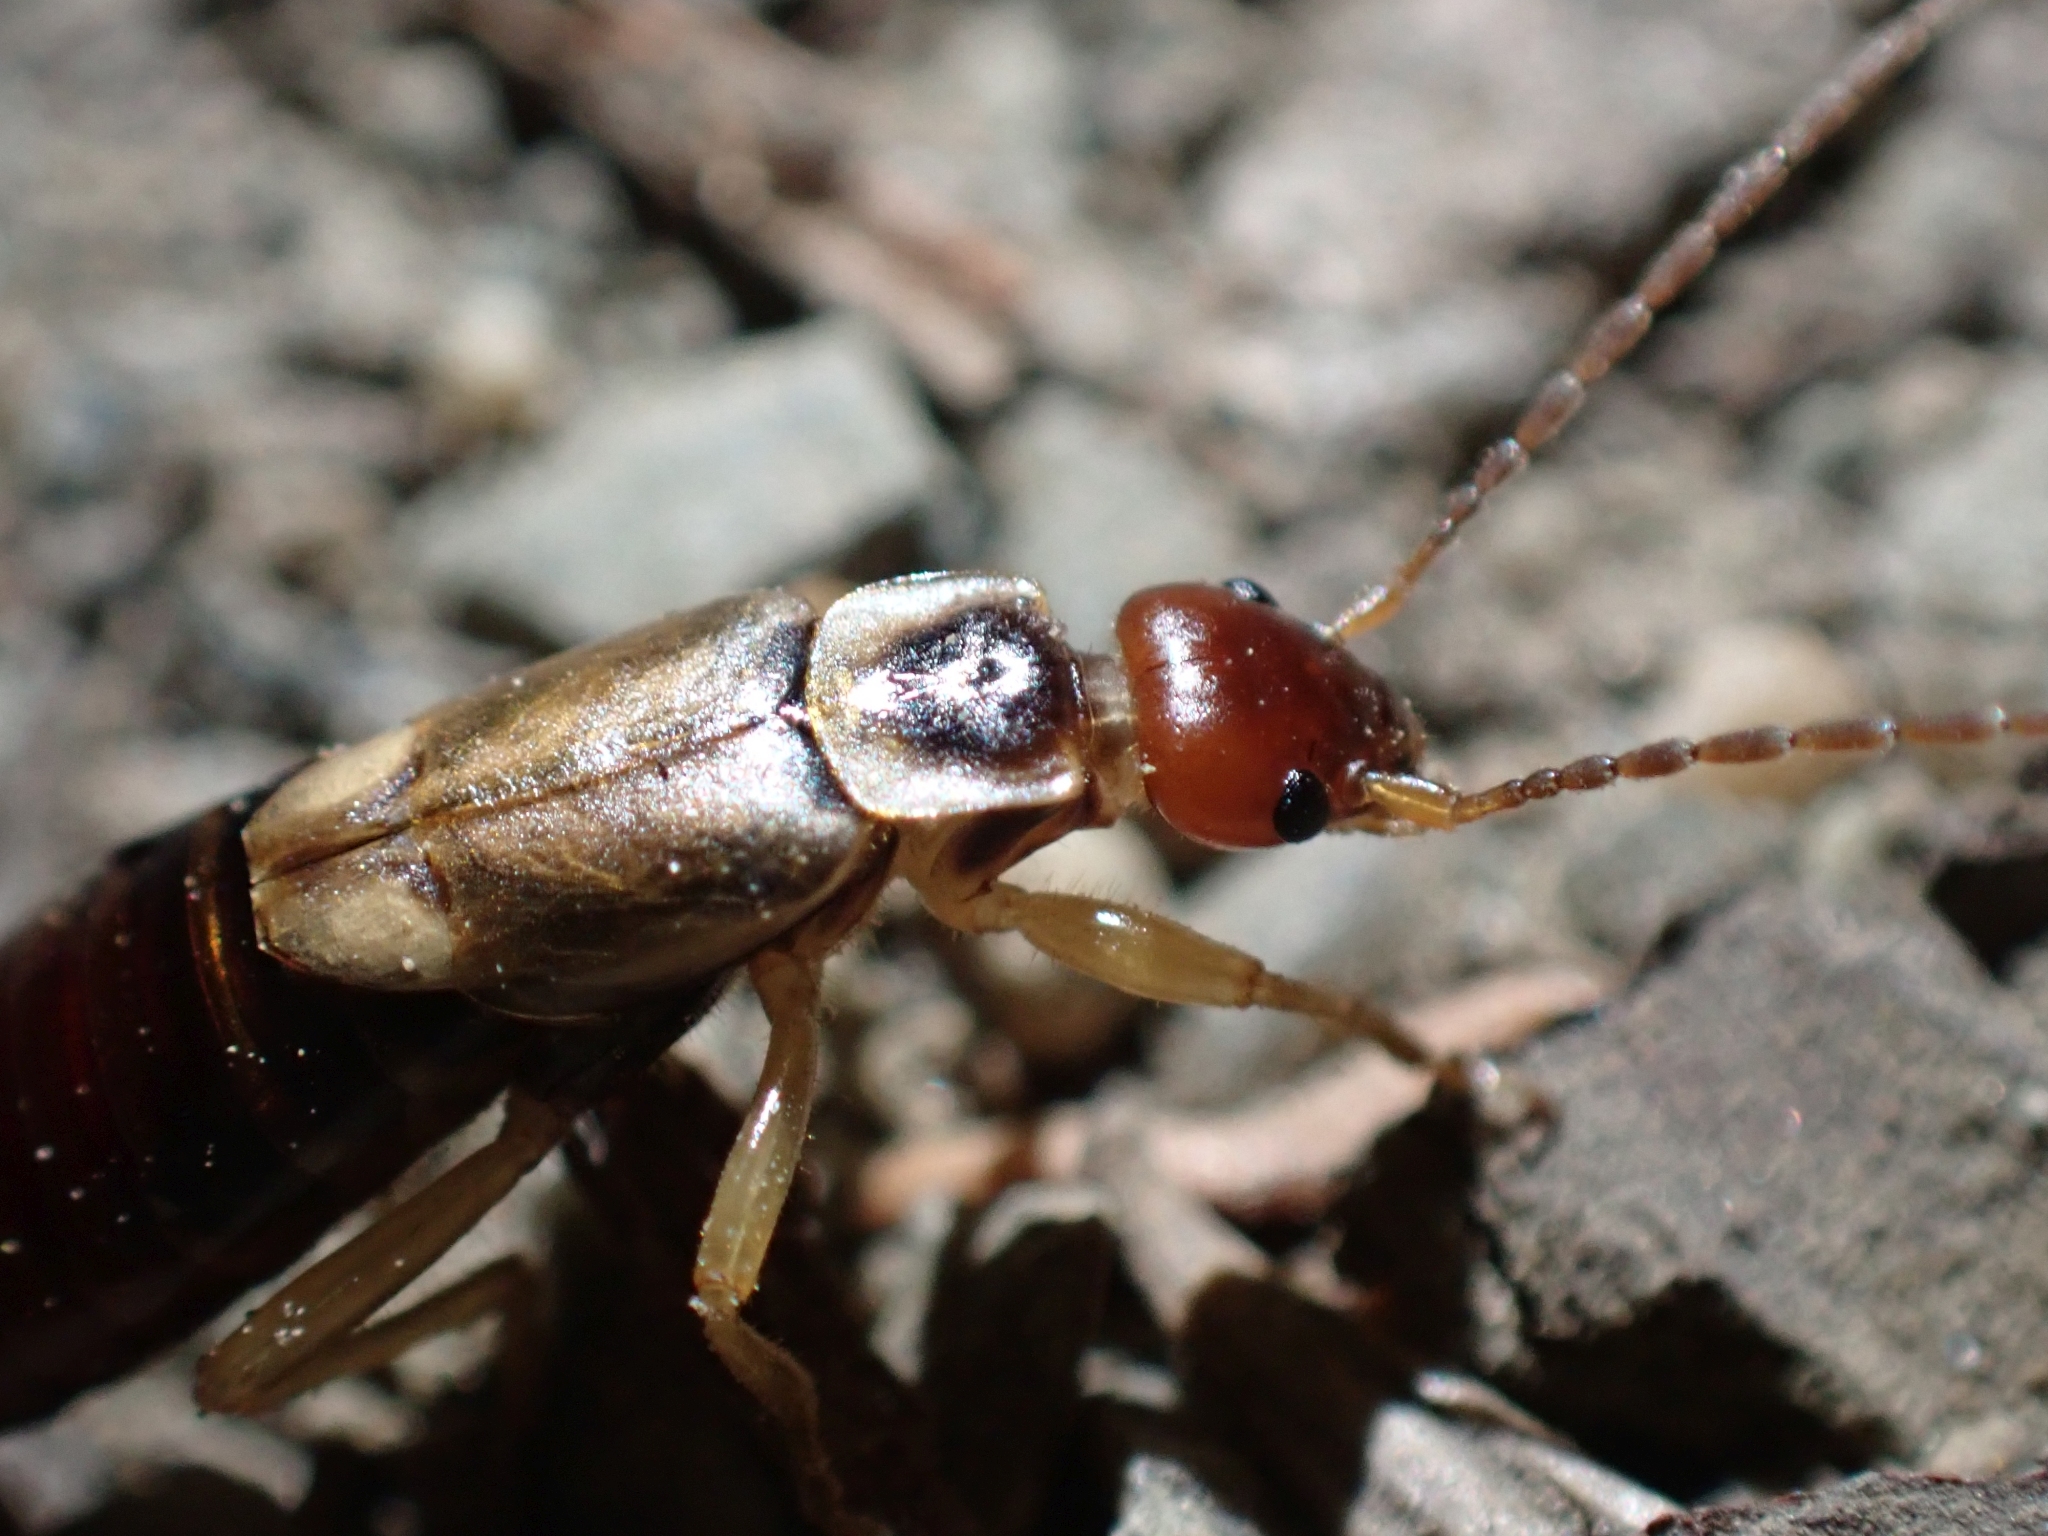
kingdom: Animalia
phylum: Arthropoda
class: Insecta
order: Dermaptera
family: Forficulidae
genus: Forficula
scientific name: Forficula
